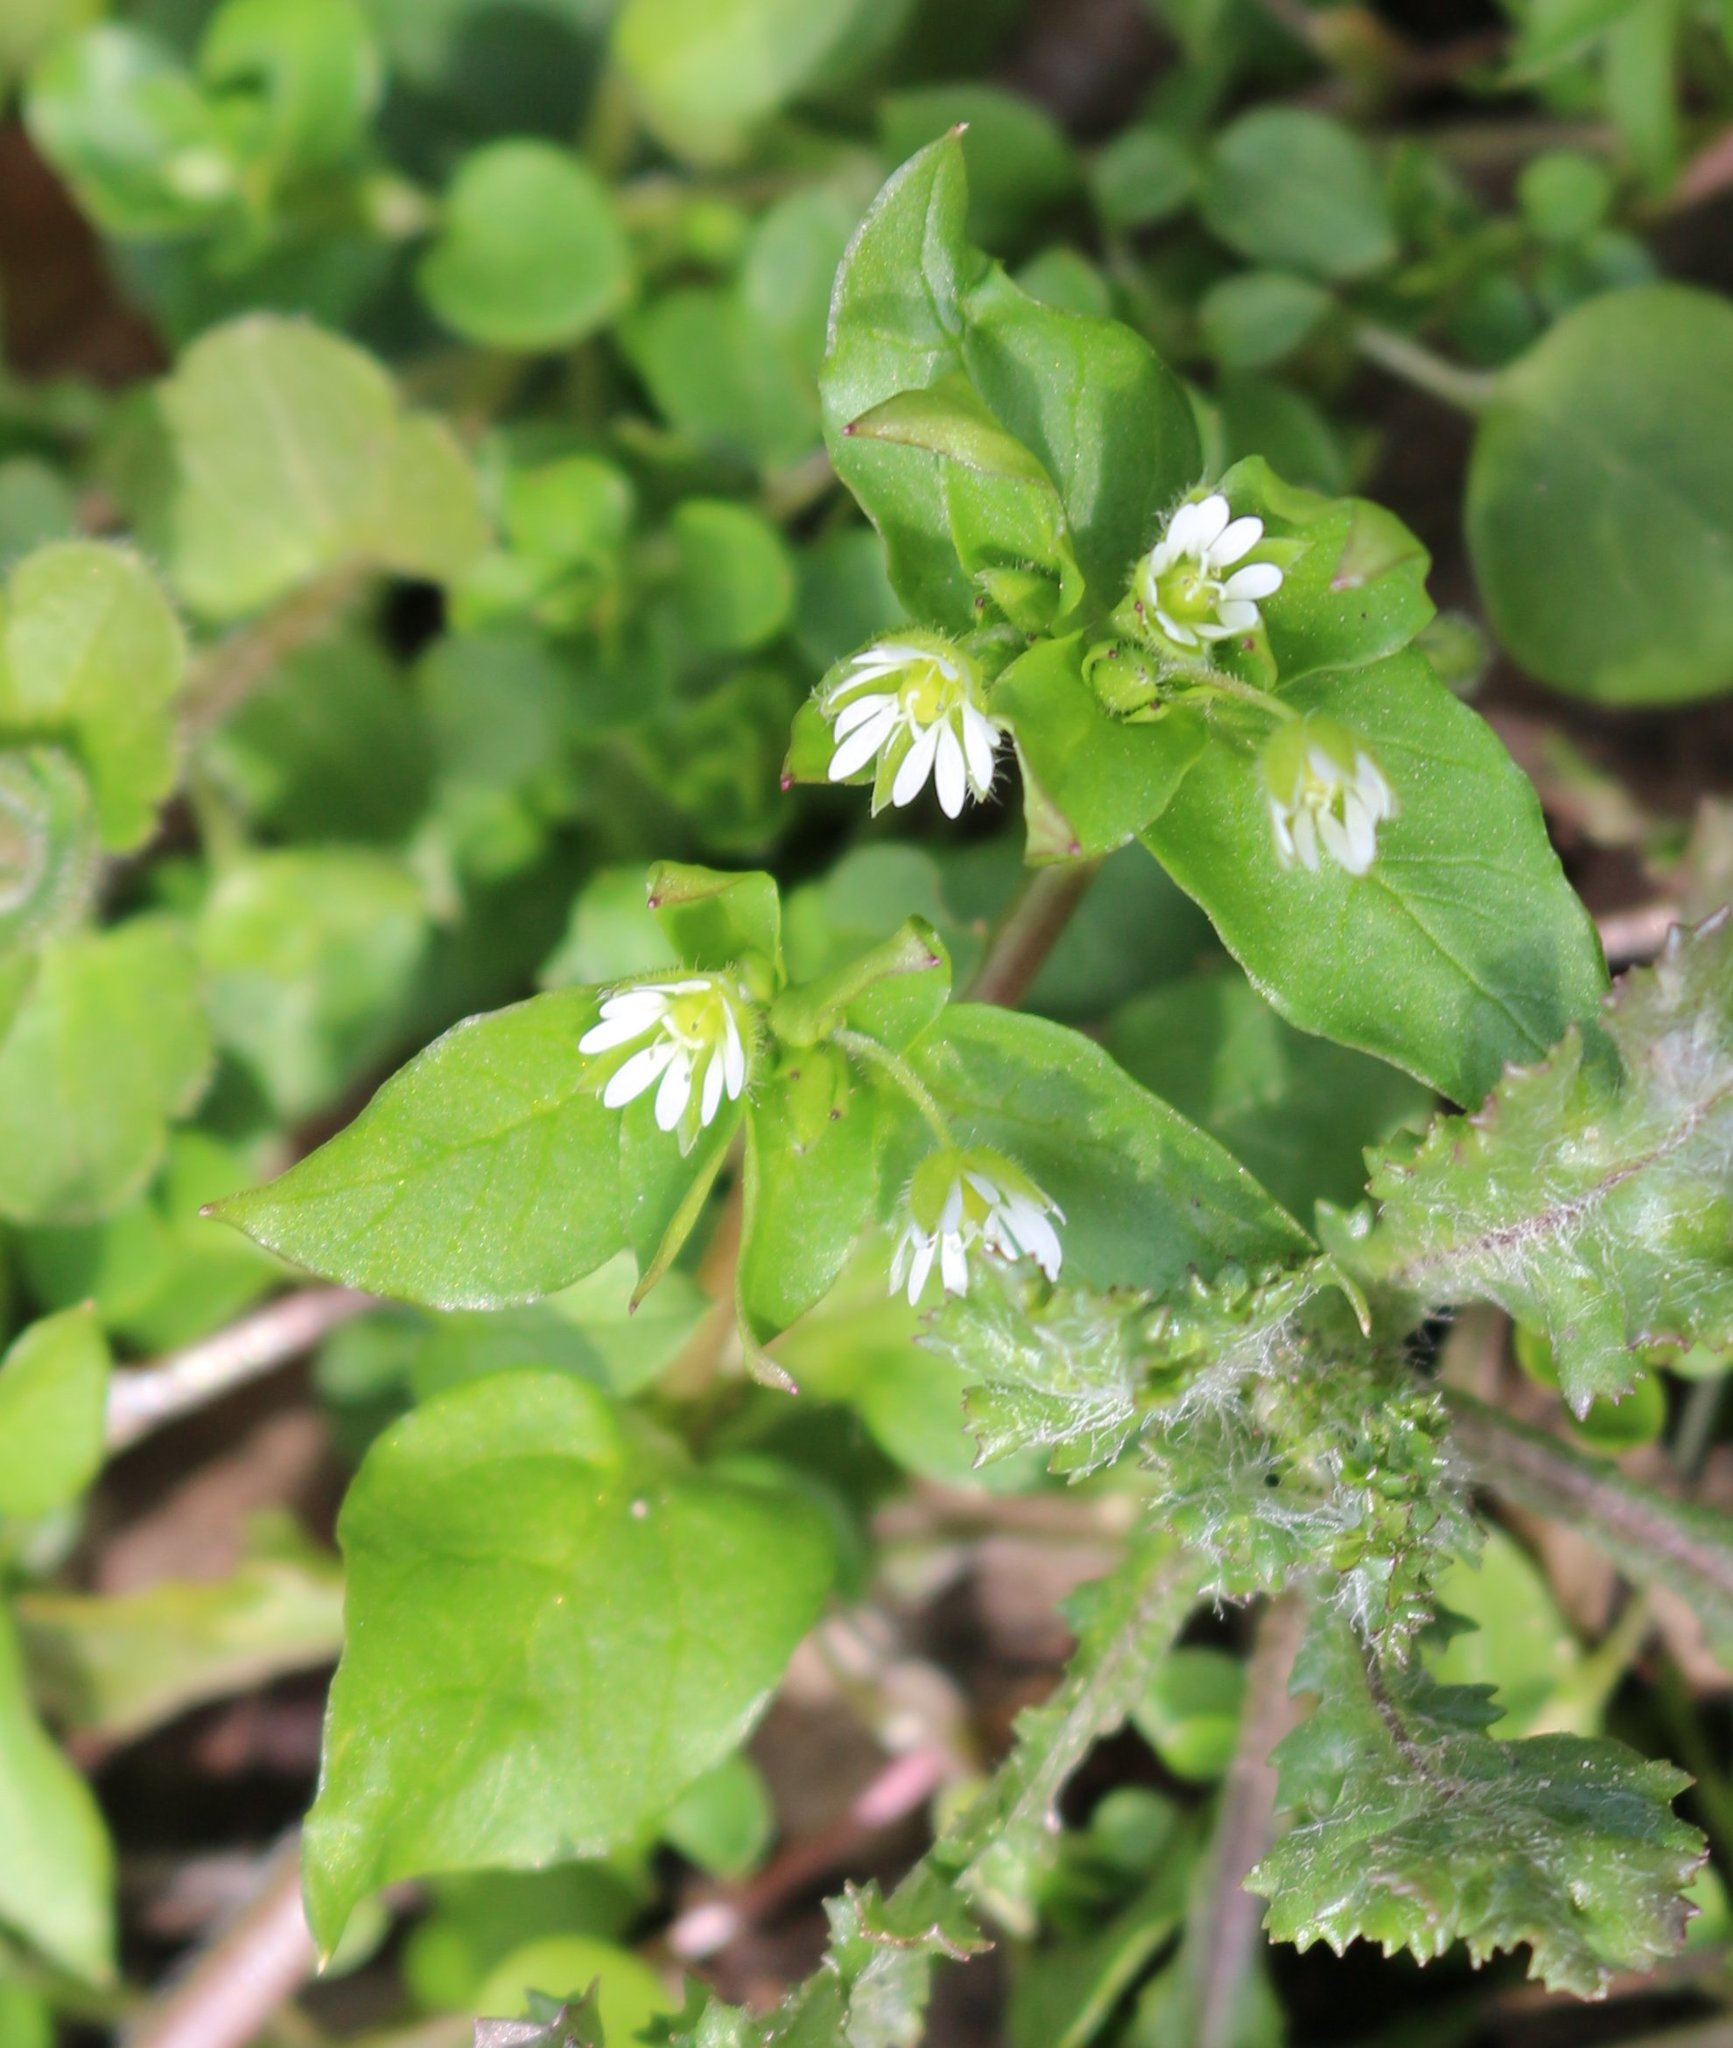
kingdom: Plantae
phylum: Tracheophyta
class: Magnoliopsida
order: Caryophyllales
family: Caryophyllaceae
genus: Stellaria
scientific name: Stellaria media
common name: Common chickweed
